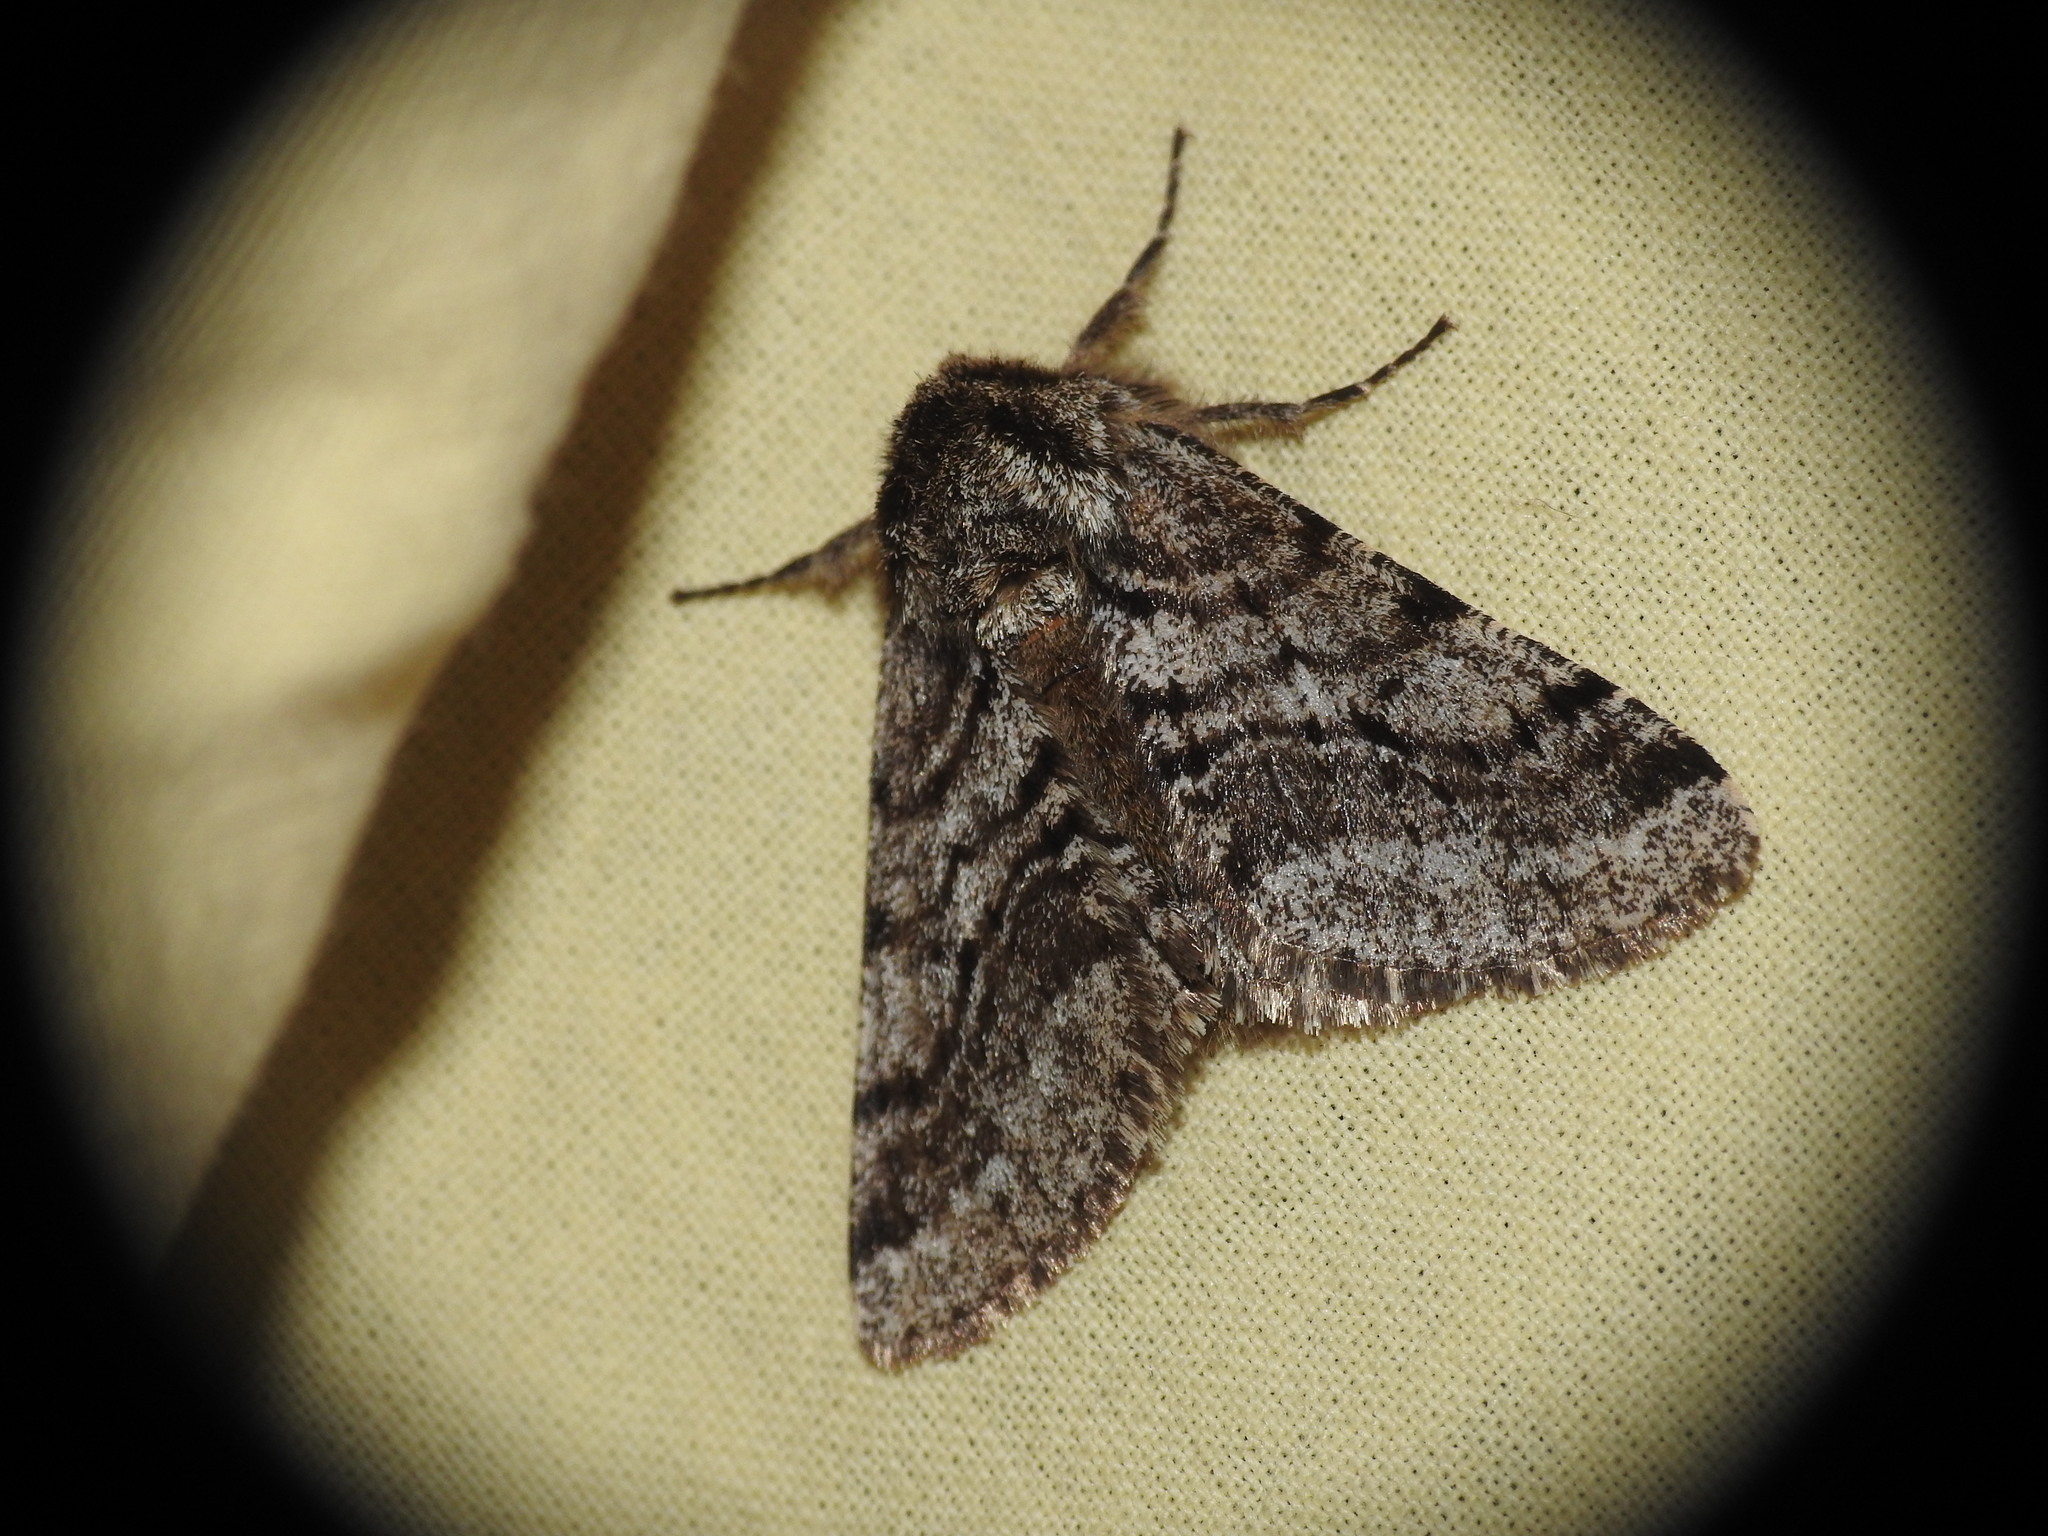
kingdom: Animalia
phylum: Arthropoda
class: Insecta
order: Lepidoptera
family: Geometridae
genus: Lycia
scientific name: Lycia hirtaria
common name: Brindled beauty
